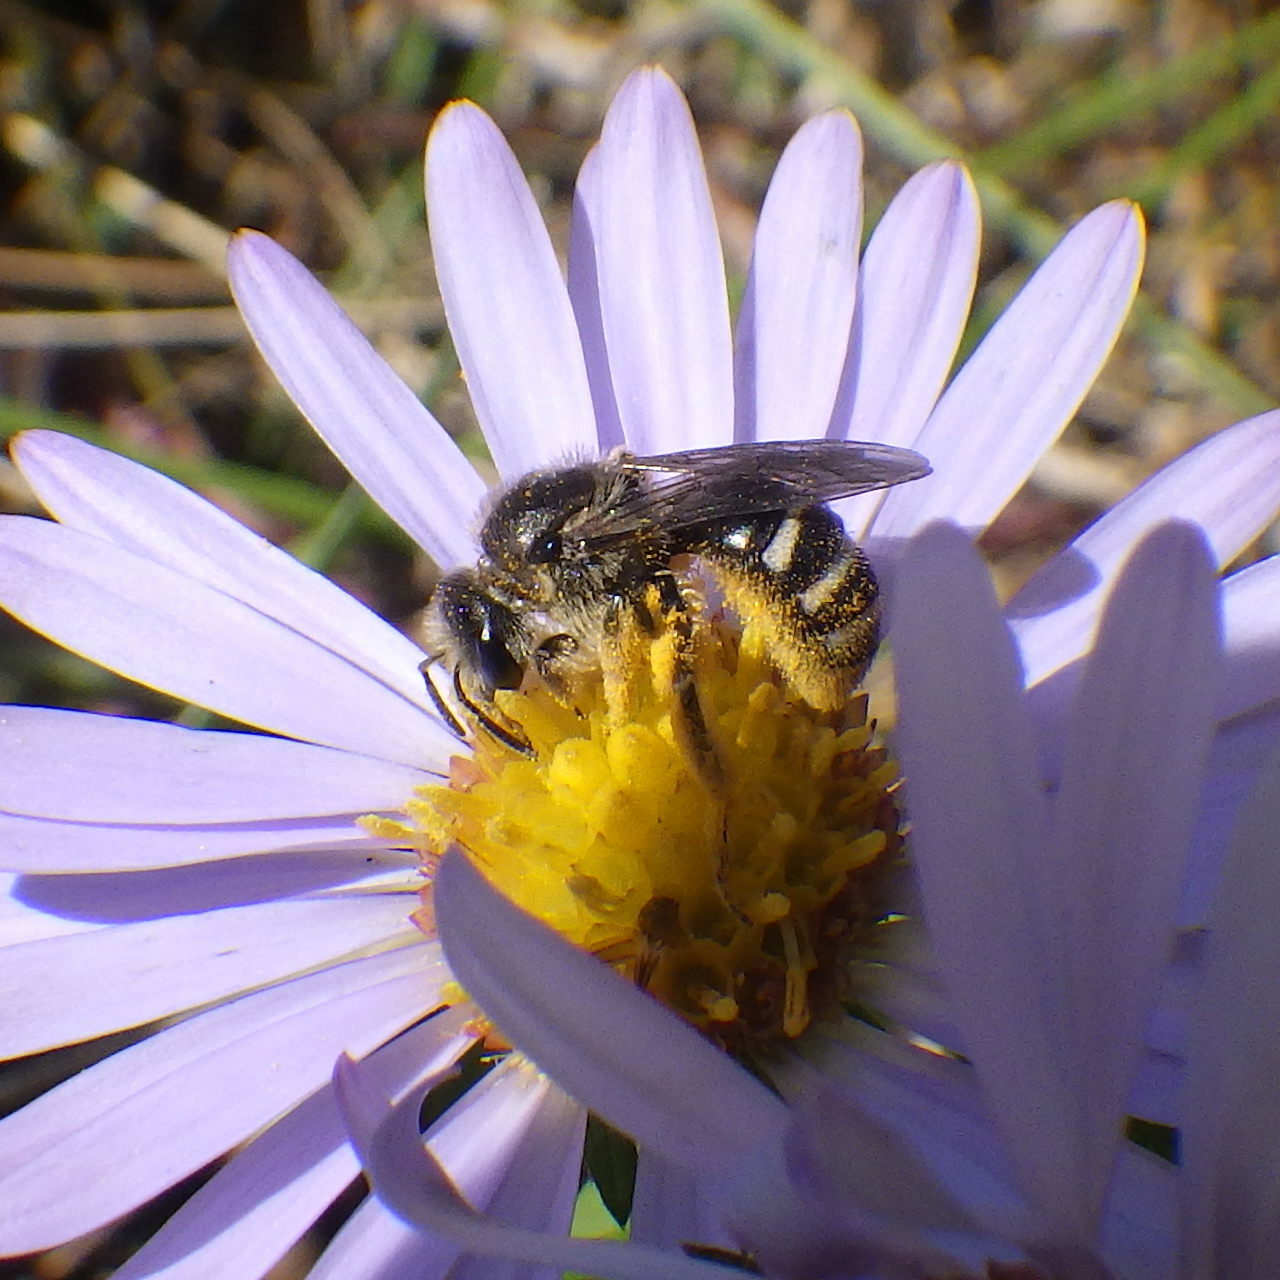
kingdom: Animalia
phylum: Arthropoda
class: Insecta
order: Hymenoptera
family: Halictidae
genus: Lasioglossum
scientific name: Lasioglossum leucozonium
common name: White-zoned furrow bee
